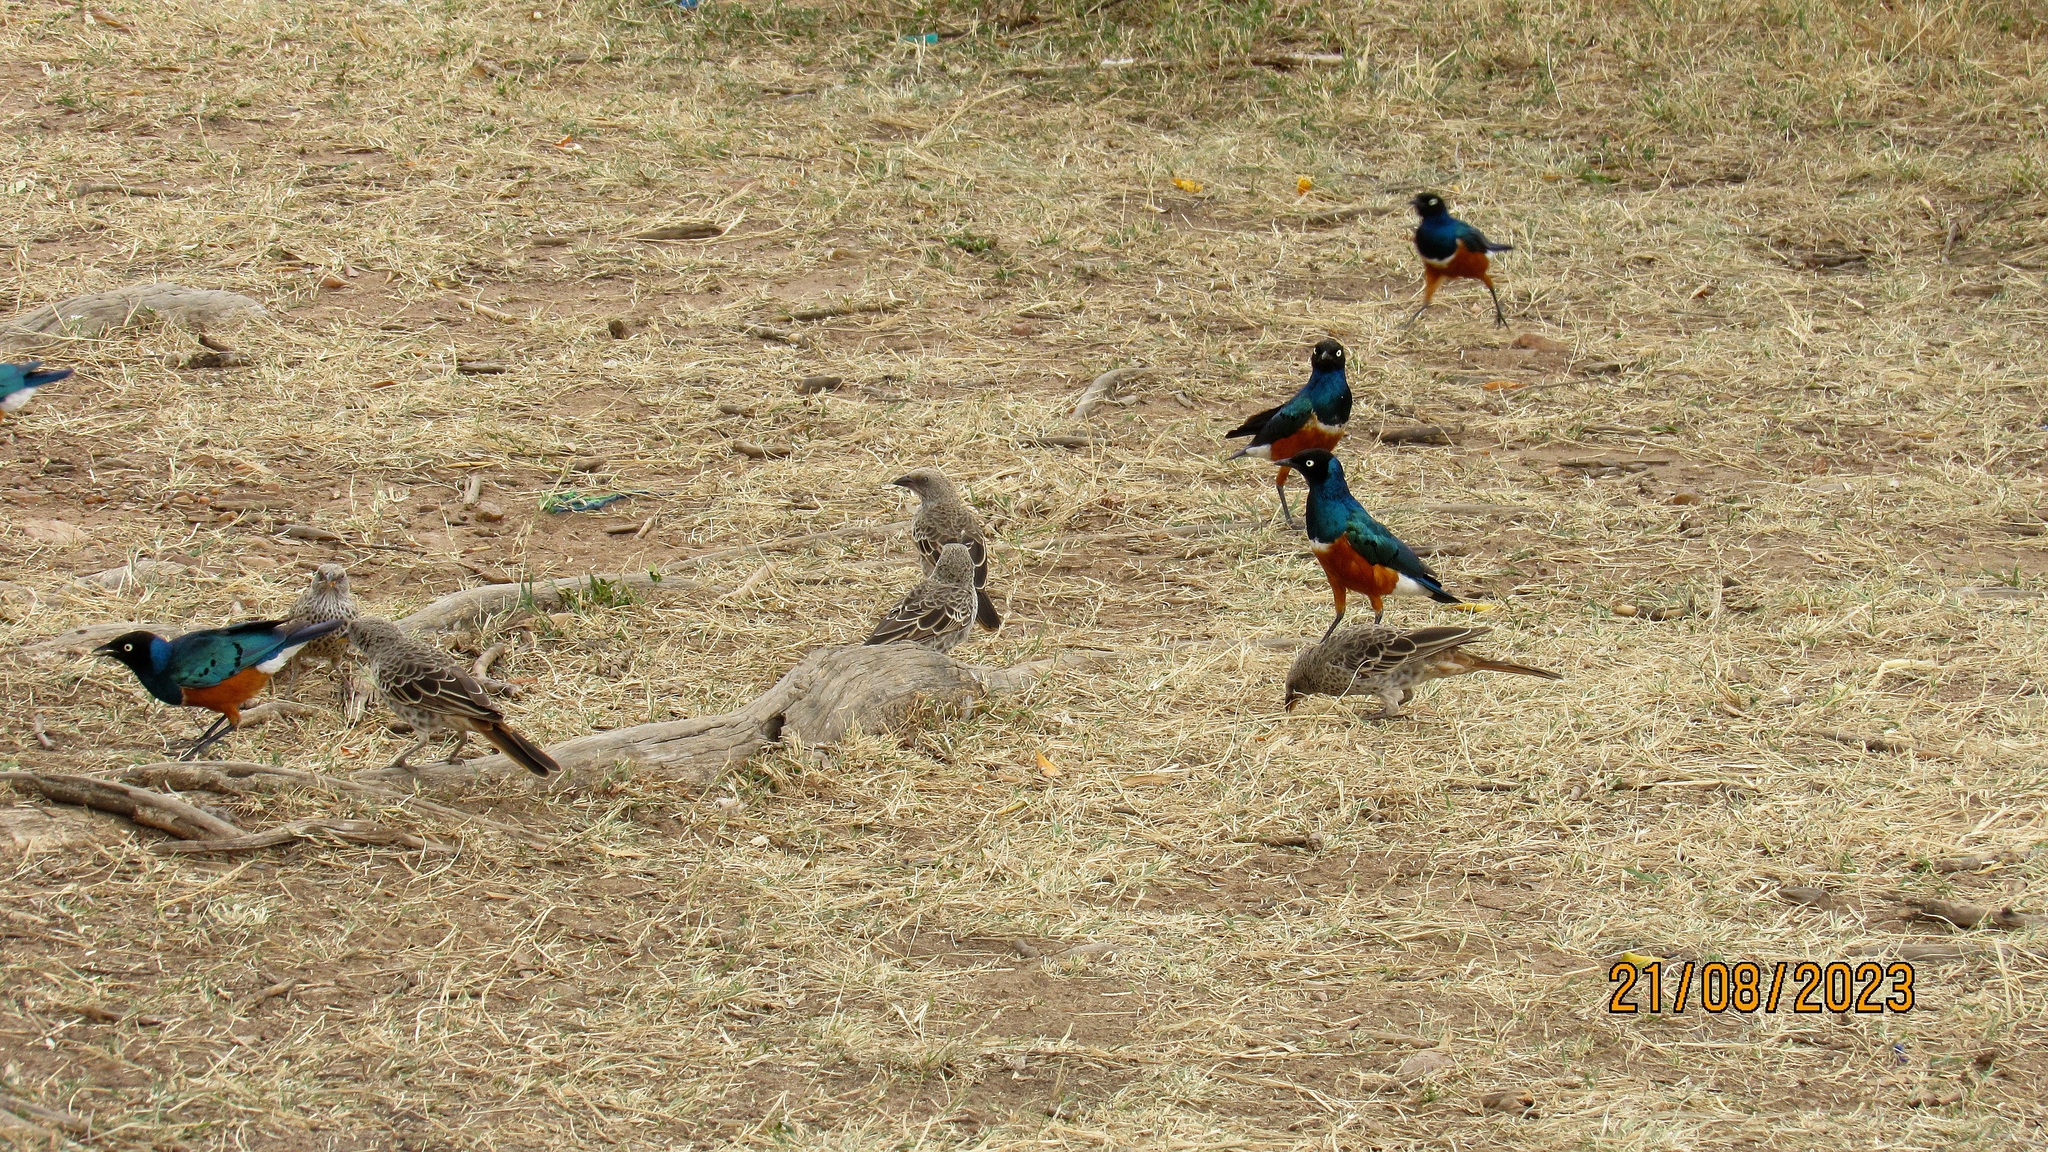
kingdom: Animalia
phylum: Chordata
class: Aves
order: Passeriformes
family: Sturnidae
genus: Lamprotornis
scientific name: Lamprotornis superbus
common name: Superb starling
